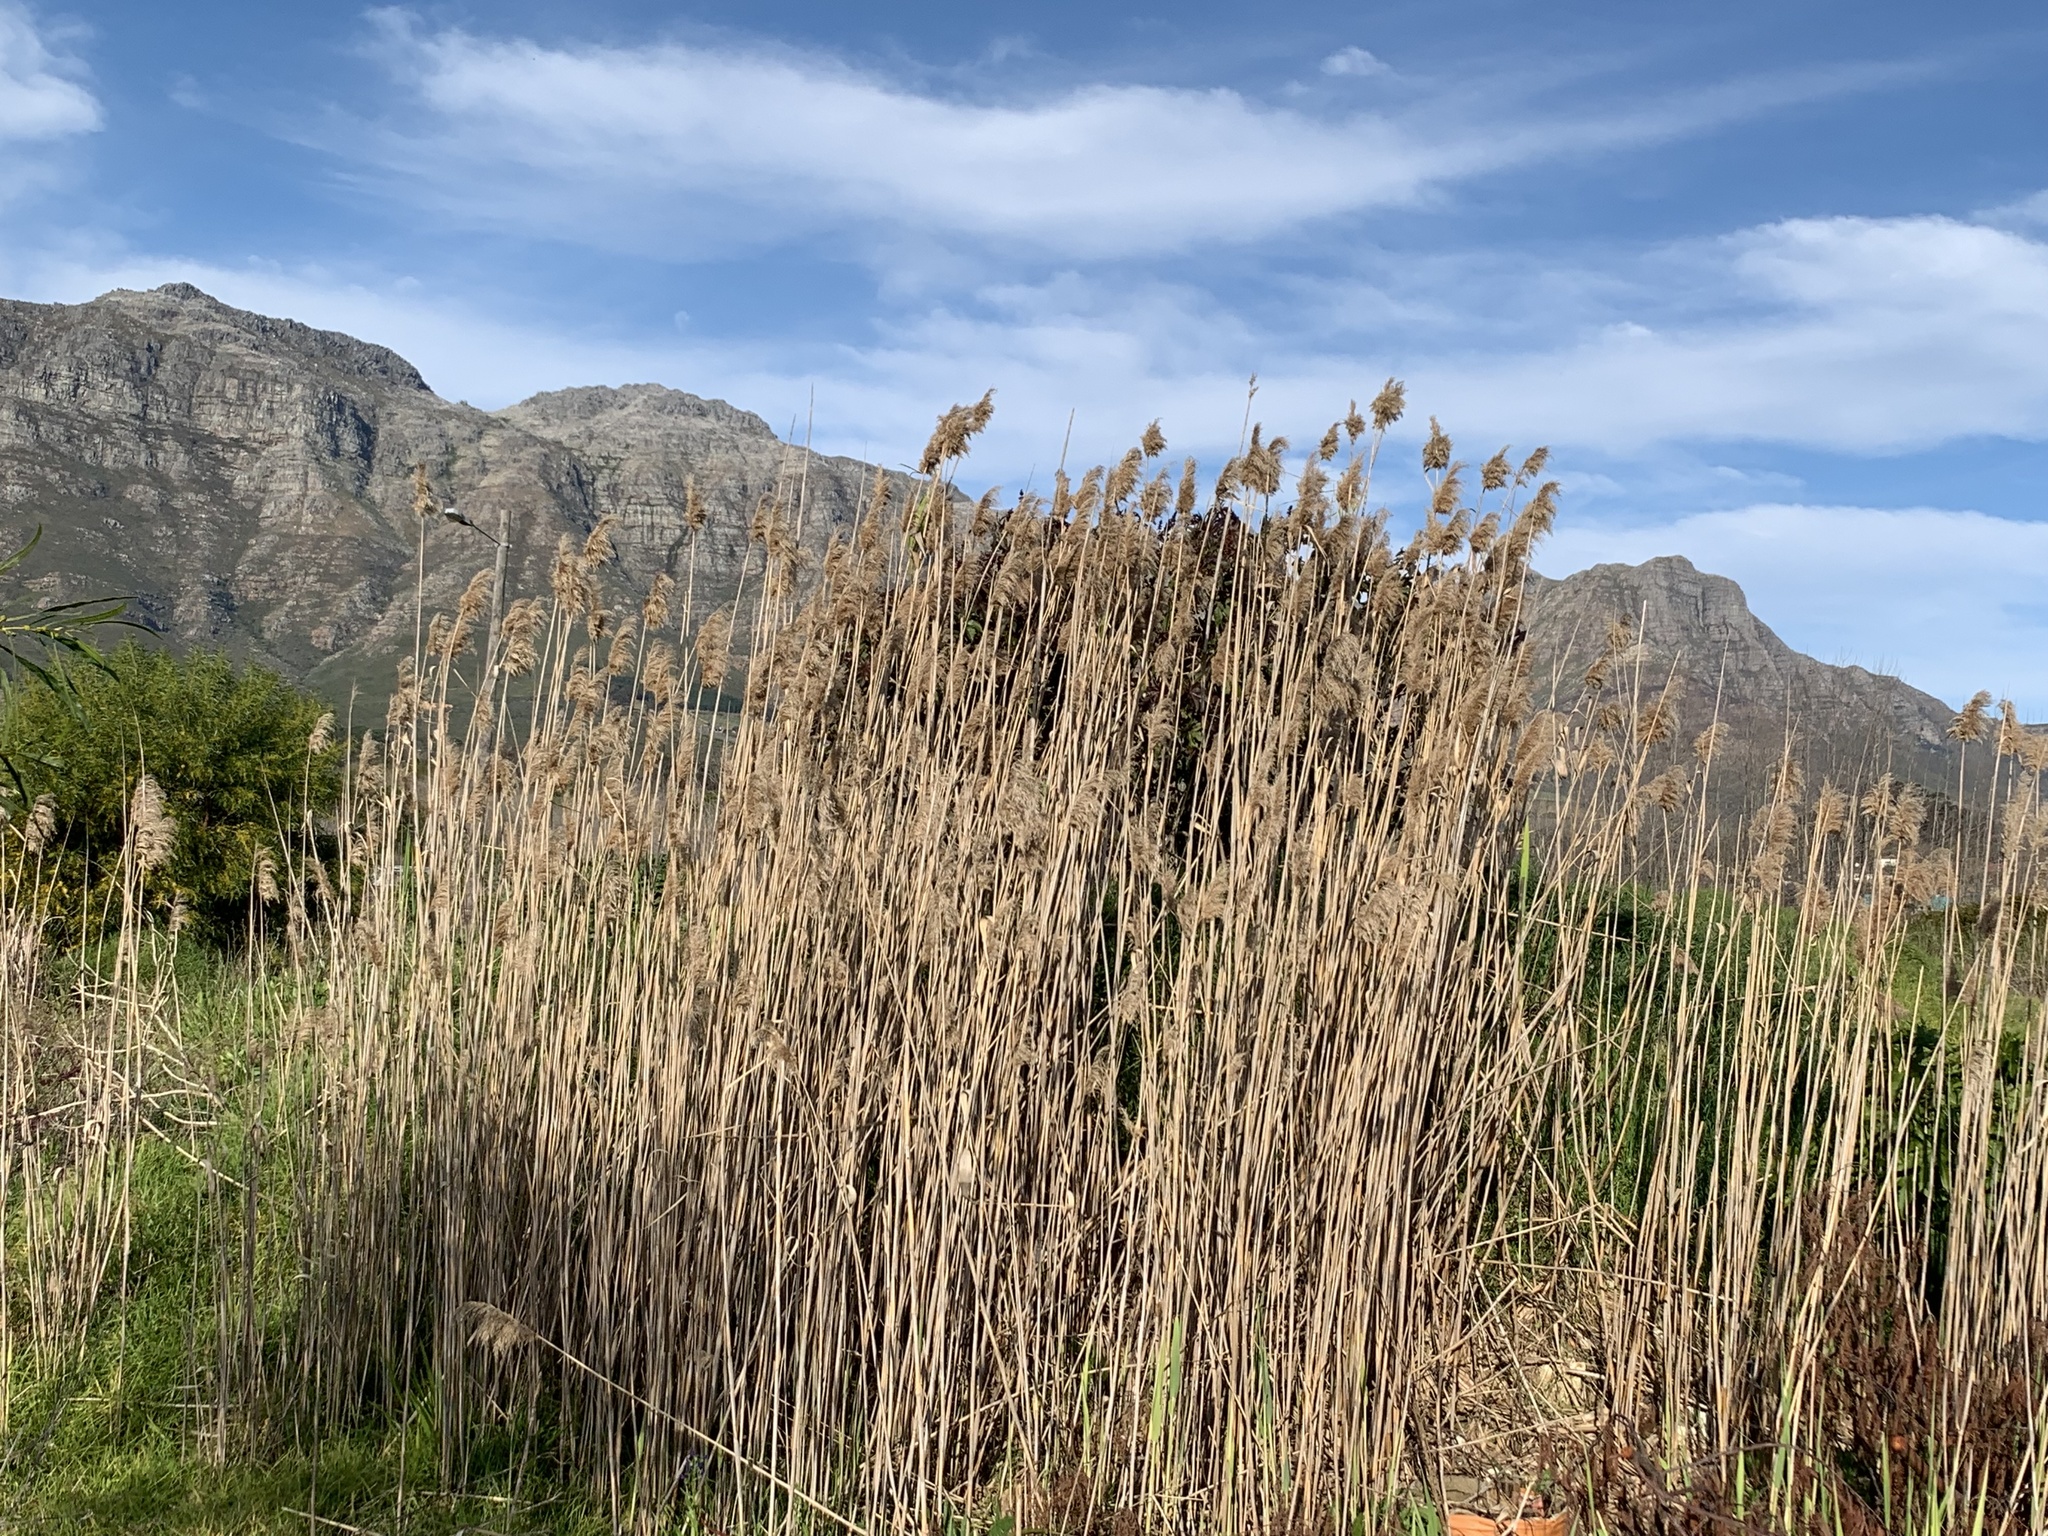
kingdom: Plantae
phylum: Tracheophyta
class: Liliopsida
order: Poales
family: Poaceae
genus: Phragmites
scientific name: Phragmites australis
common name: Common reed
